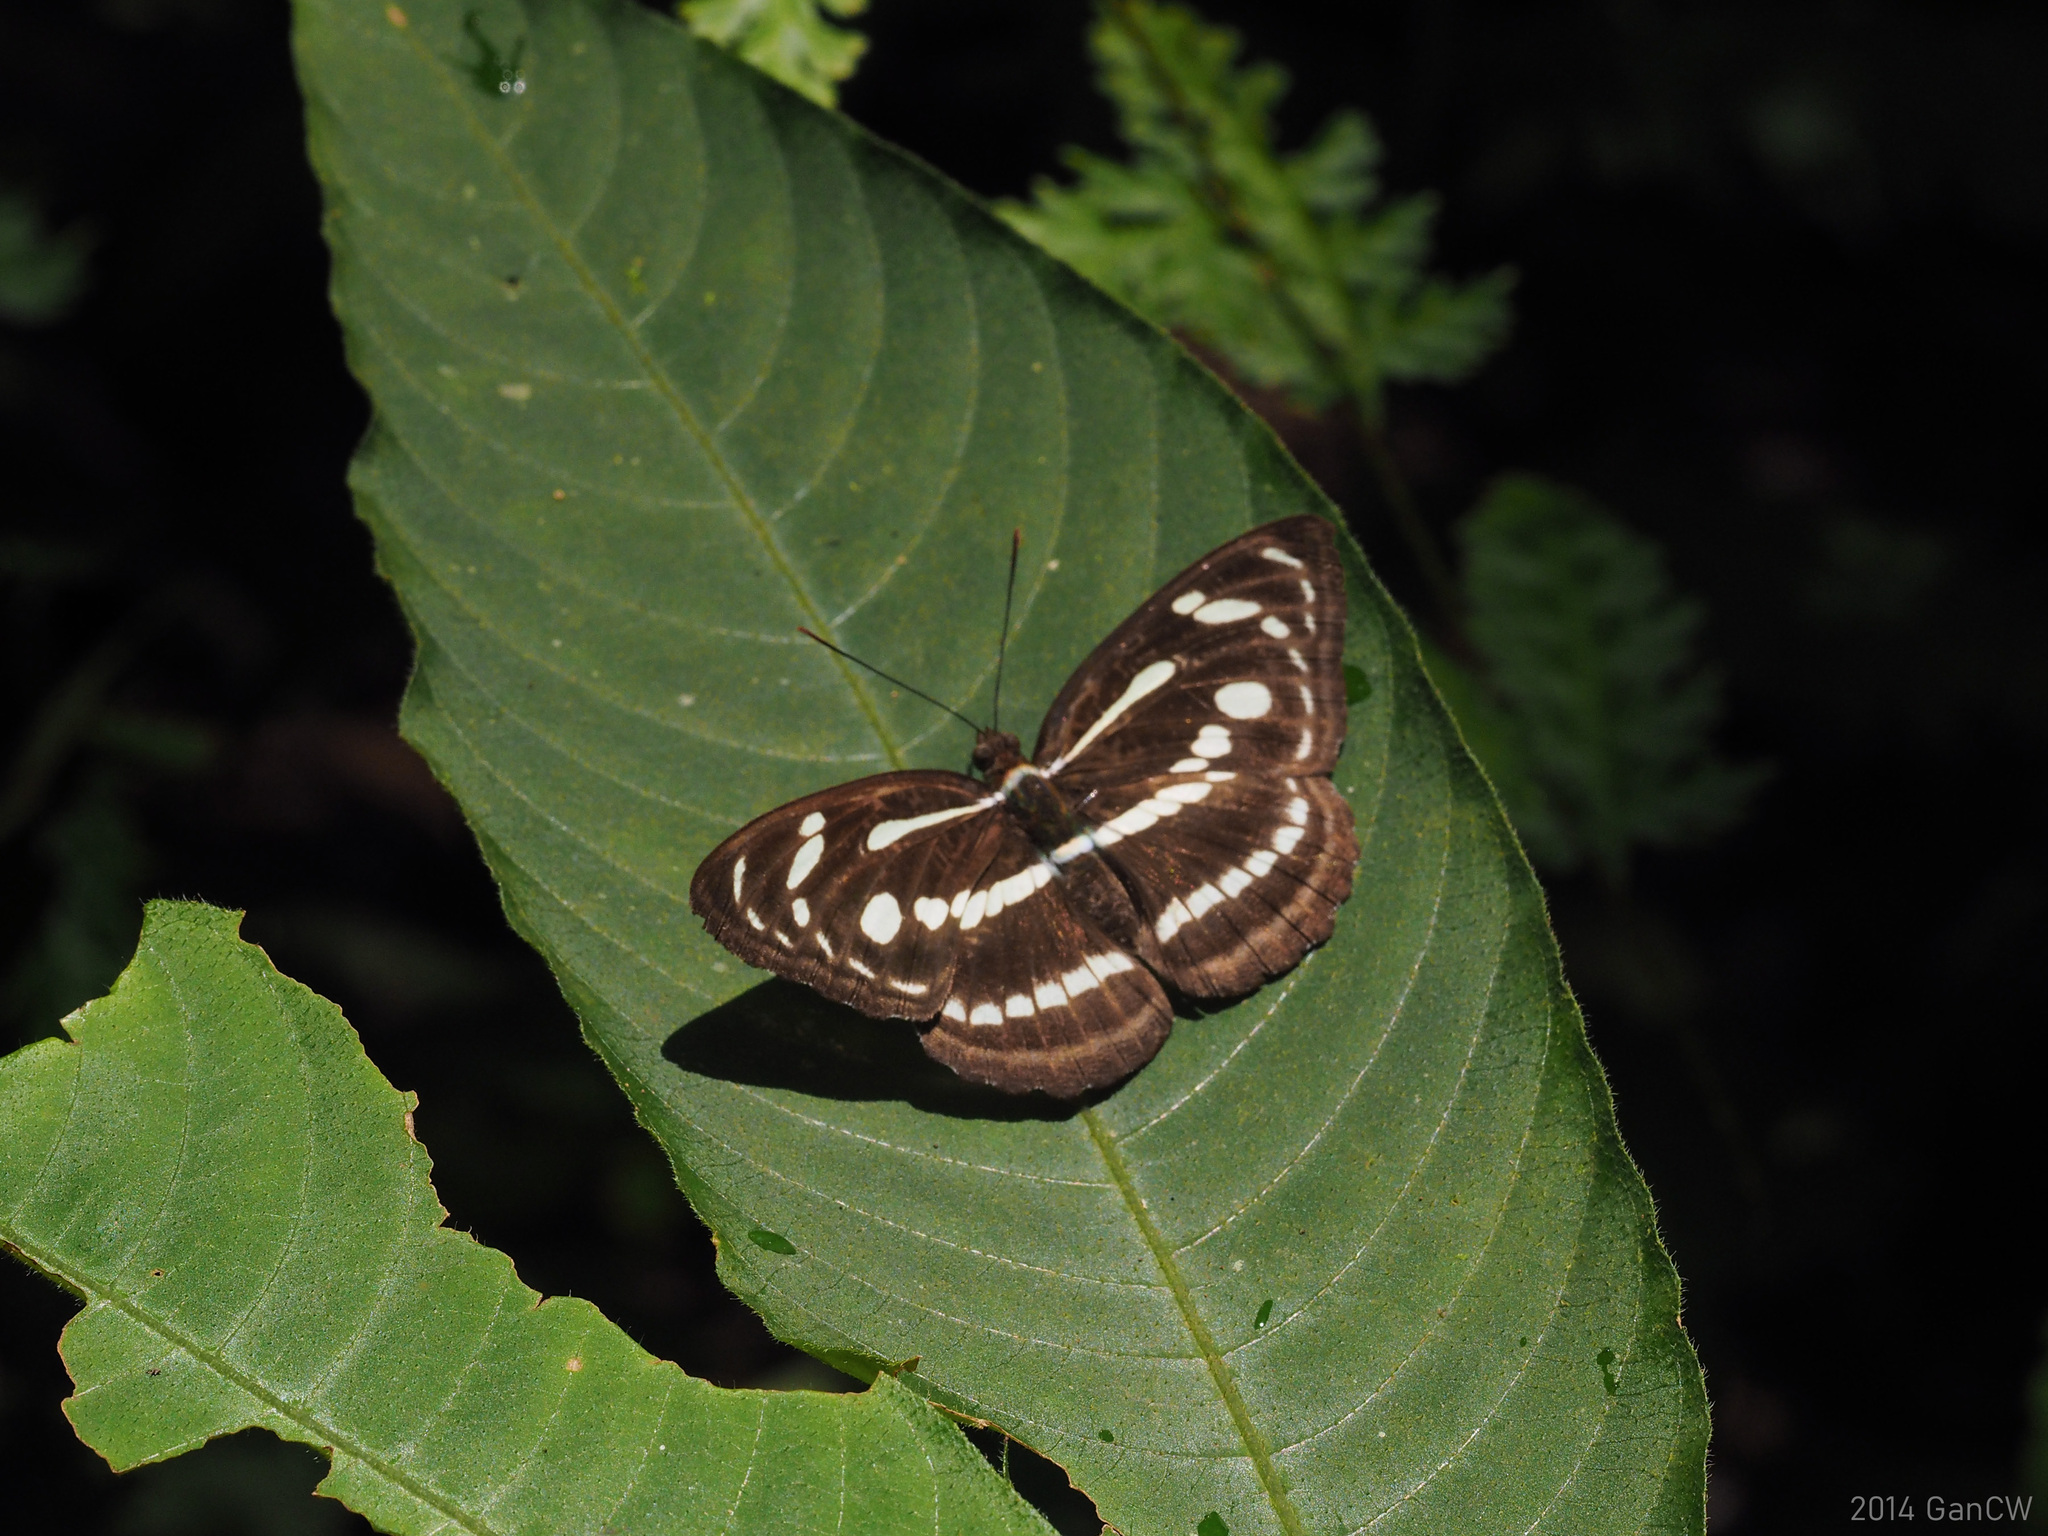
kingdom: Animalia
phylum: Arthropoda
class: Insecta
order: Lepidoptera
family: Nymphalidae
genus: Parathyma
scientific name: Parathyma pravara
